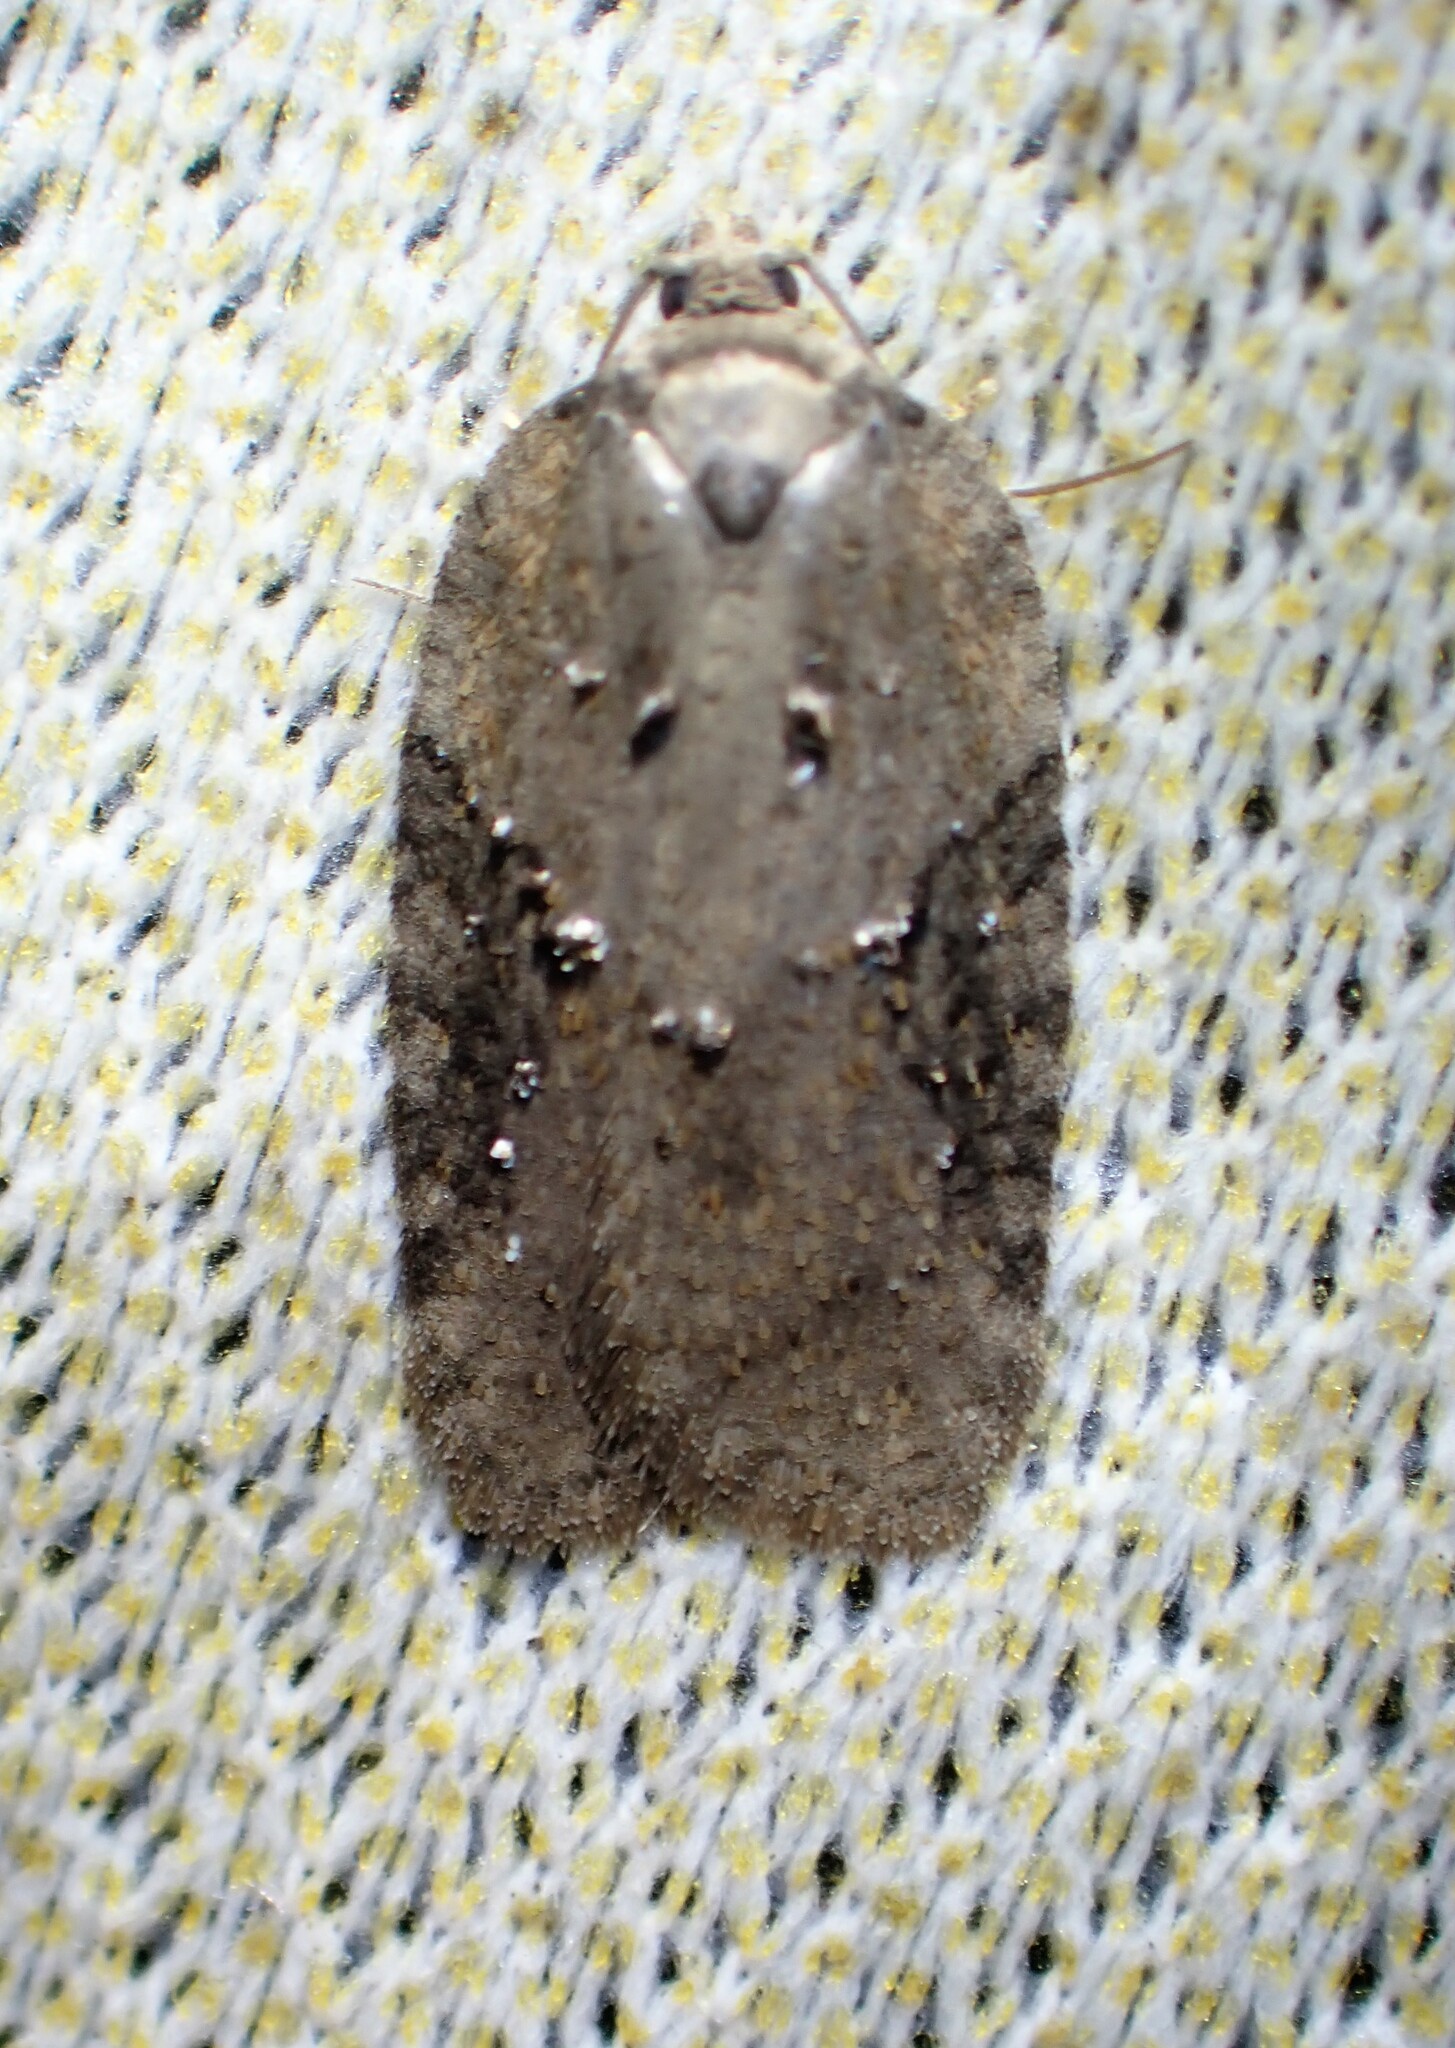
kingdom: Animalia
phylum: Arthropoda
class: Insecta
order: Lepidoptera
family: Tortricidae
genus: Acleris
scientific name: Acleris chalybeana
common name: Lesser maple leafroller
